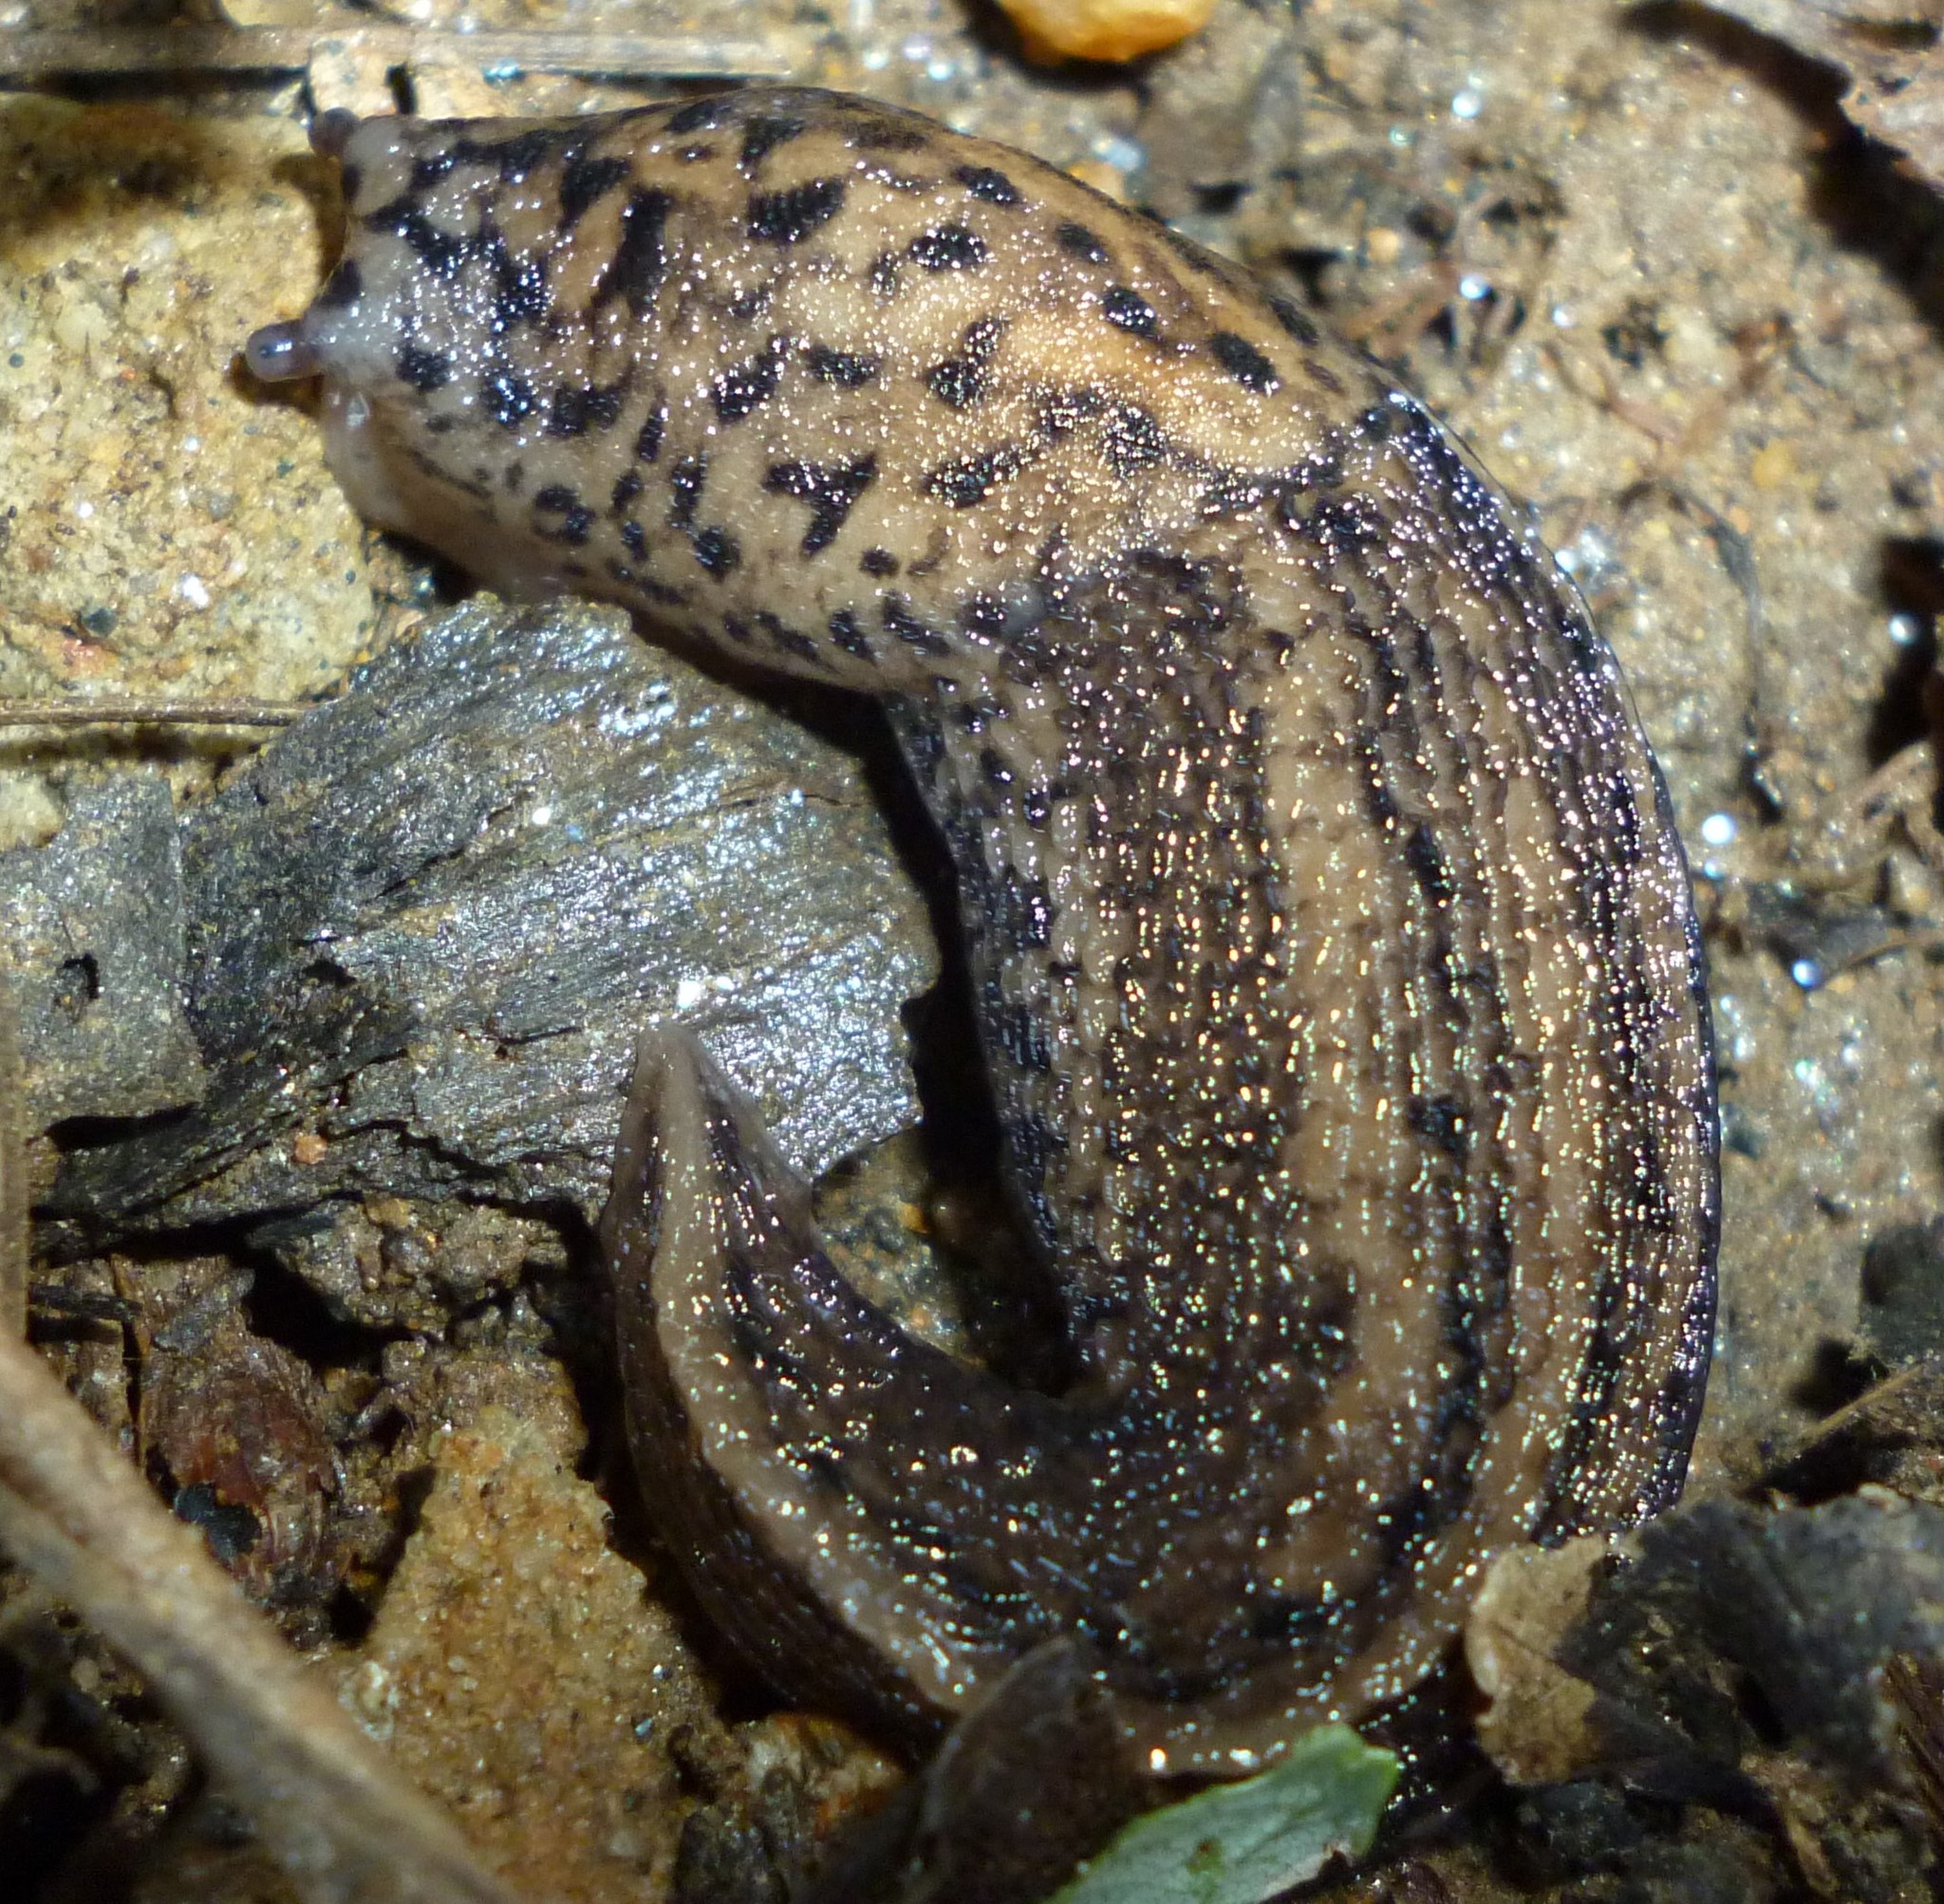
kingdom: Animalia
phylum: Mollusca
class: Gastropoda
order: Stylommatophora
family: Limacidae
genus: Limax
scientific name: Limax maximus
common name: Great grey slug
